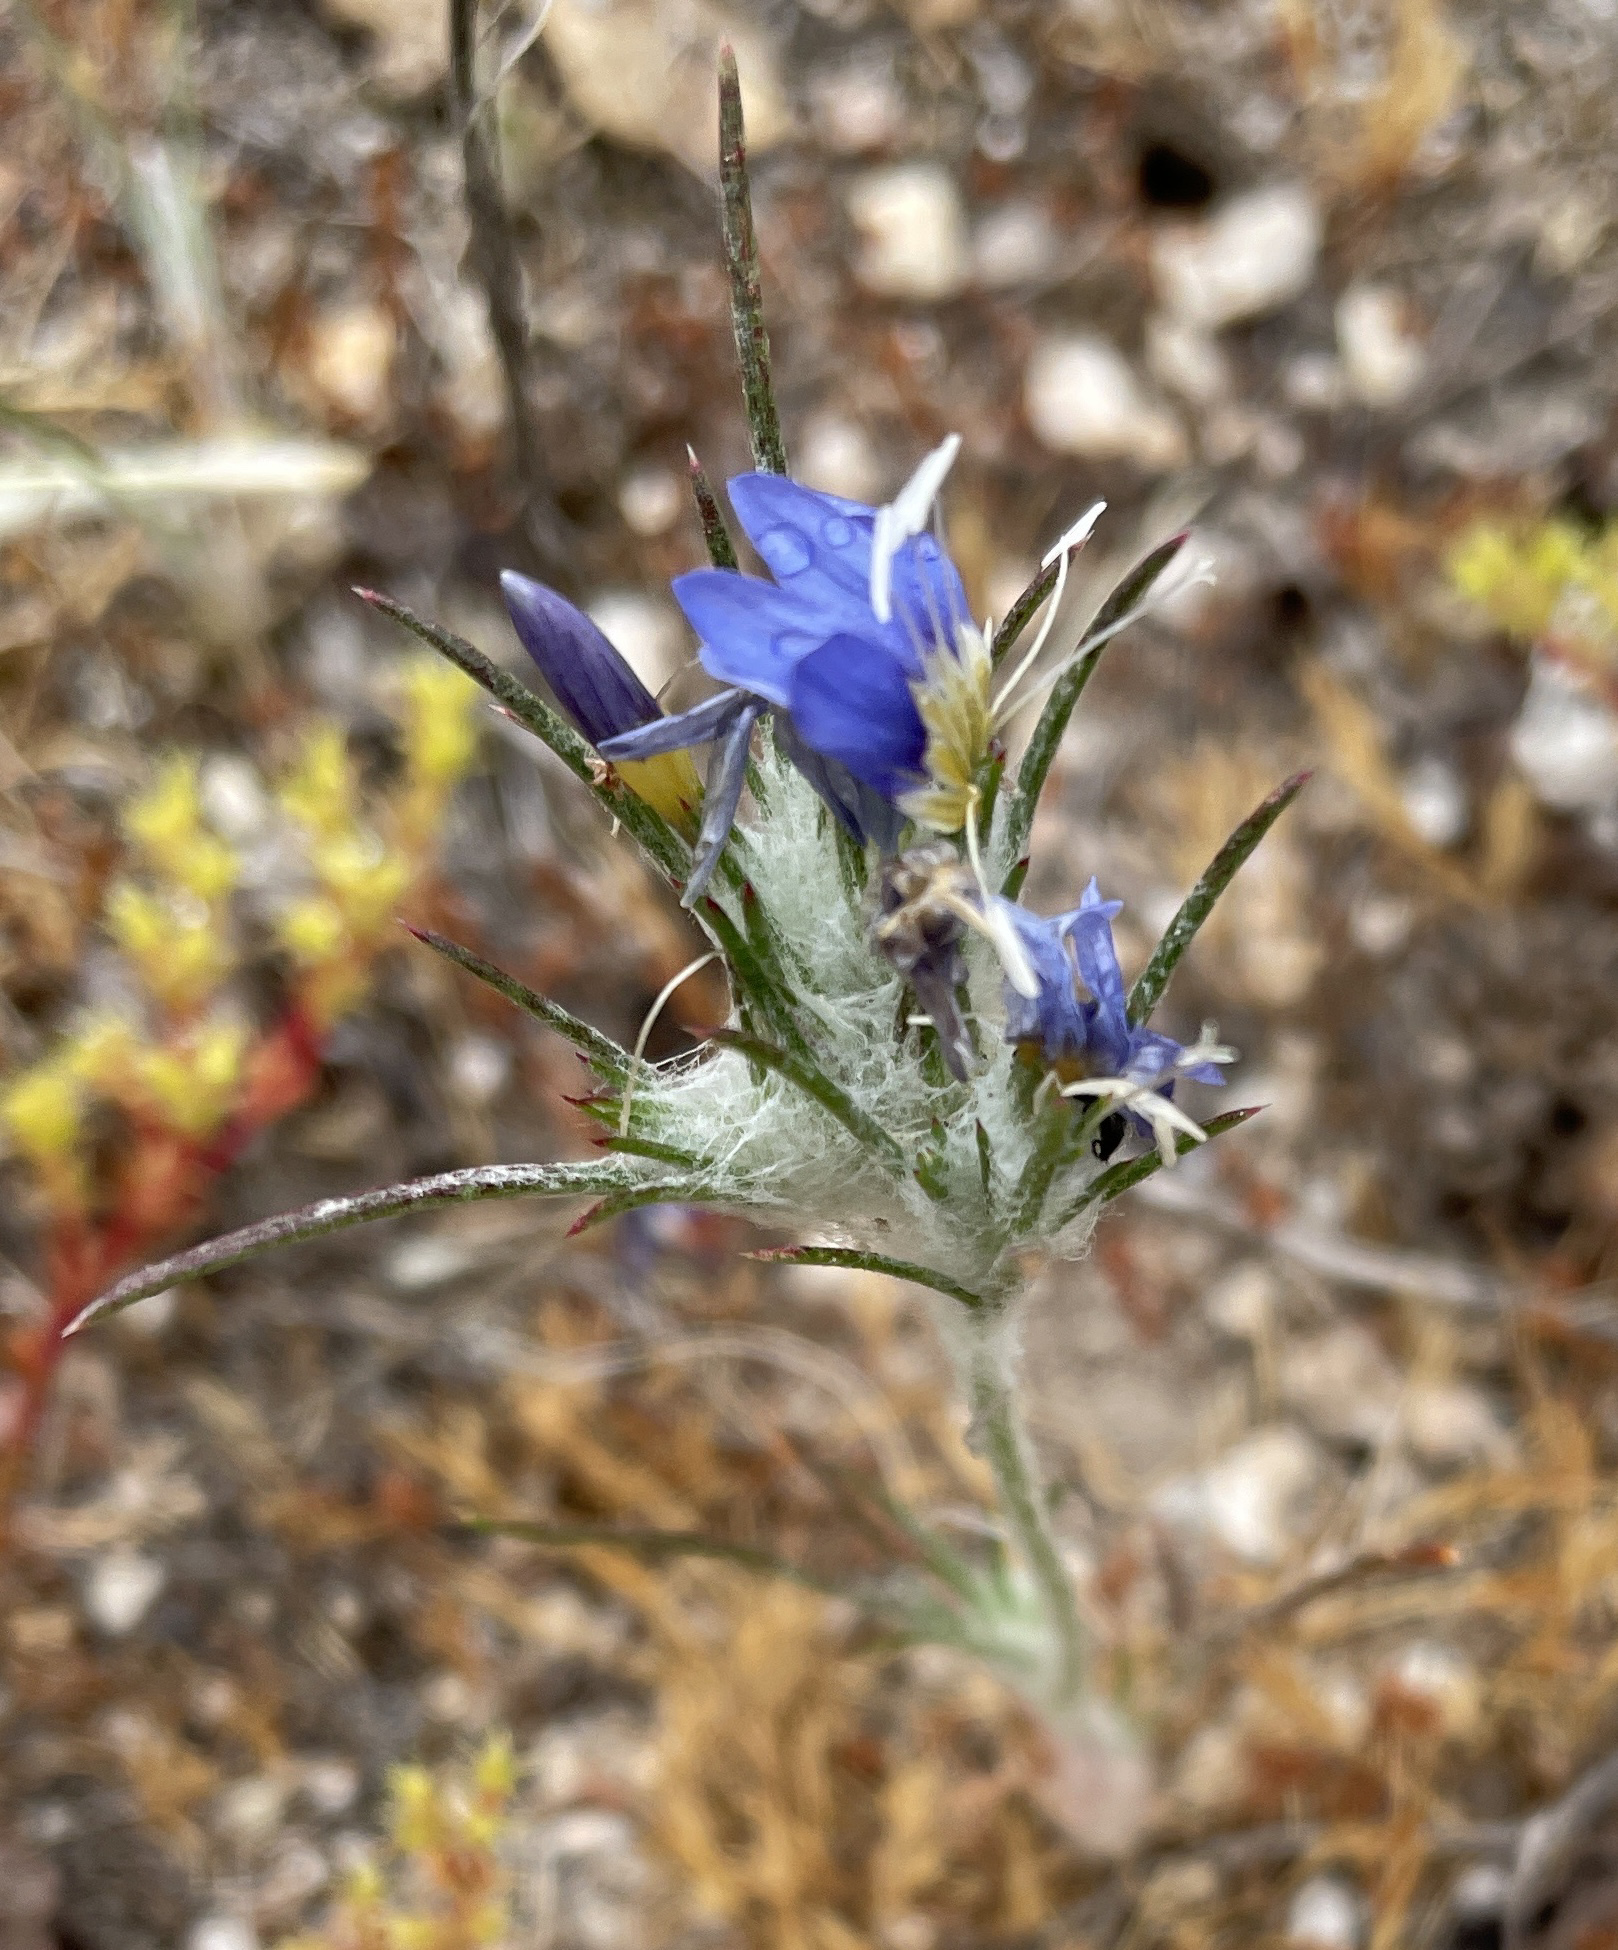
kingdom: Plantae
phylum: Tracheophyta
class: Magnoliopsida
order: Ericales
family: Polemoniaceae
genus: Eriastrum
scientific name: Eriastrum virgatum
